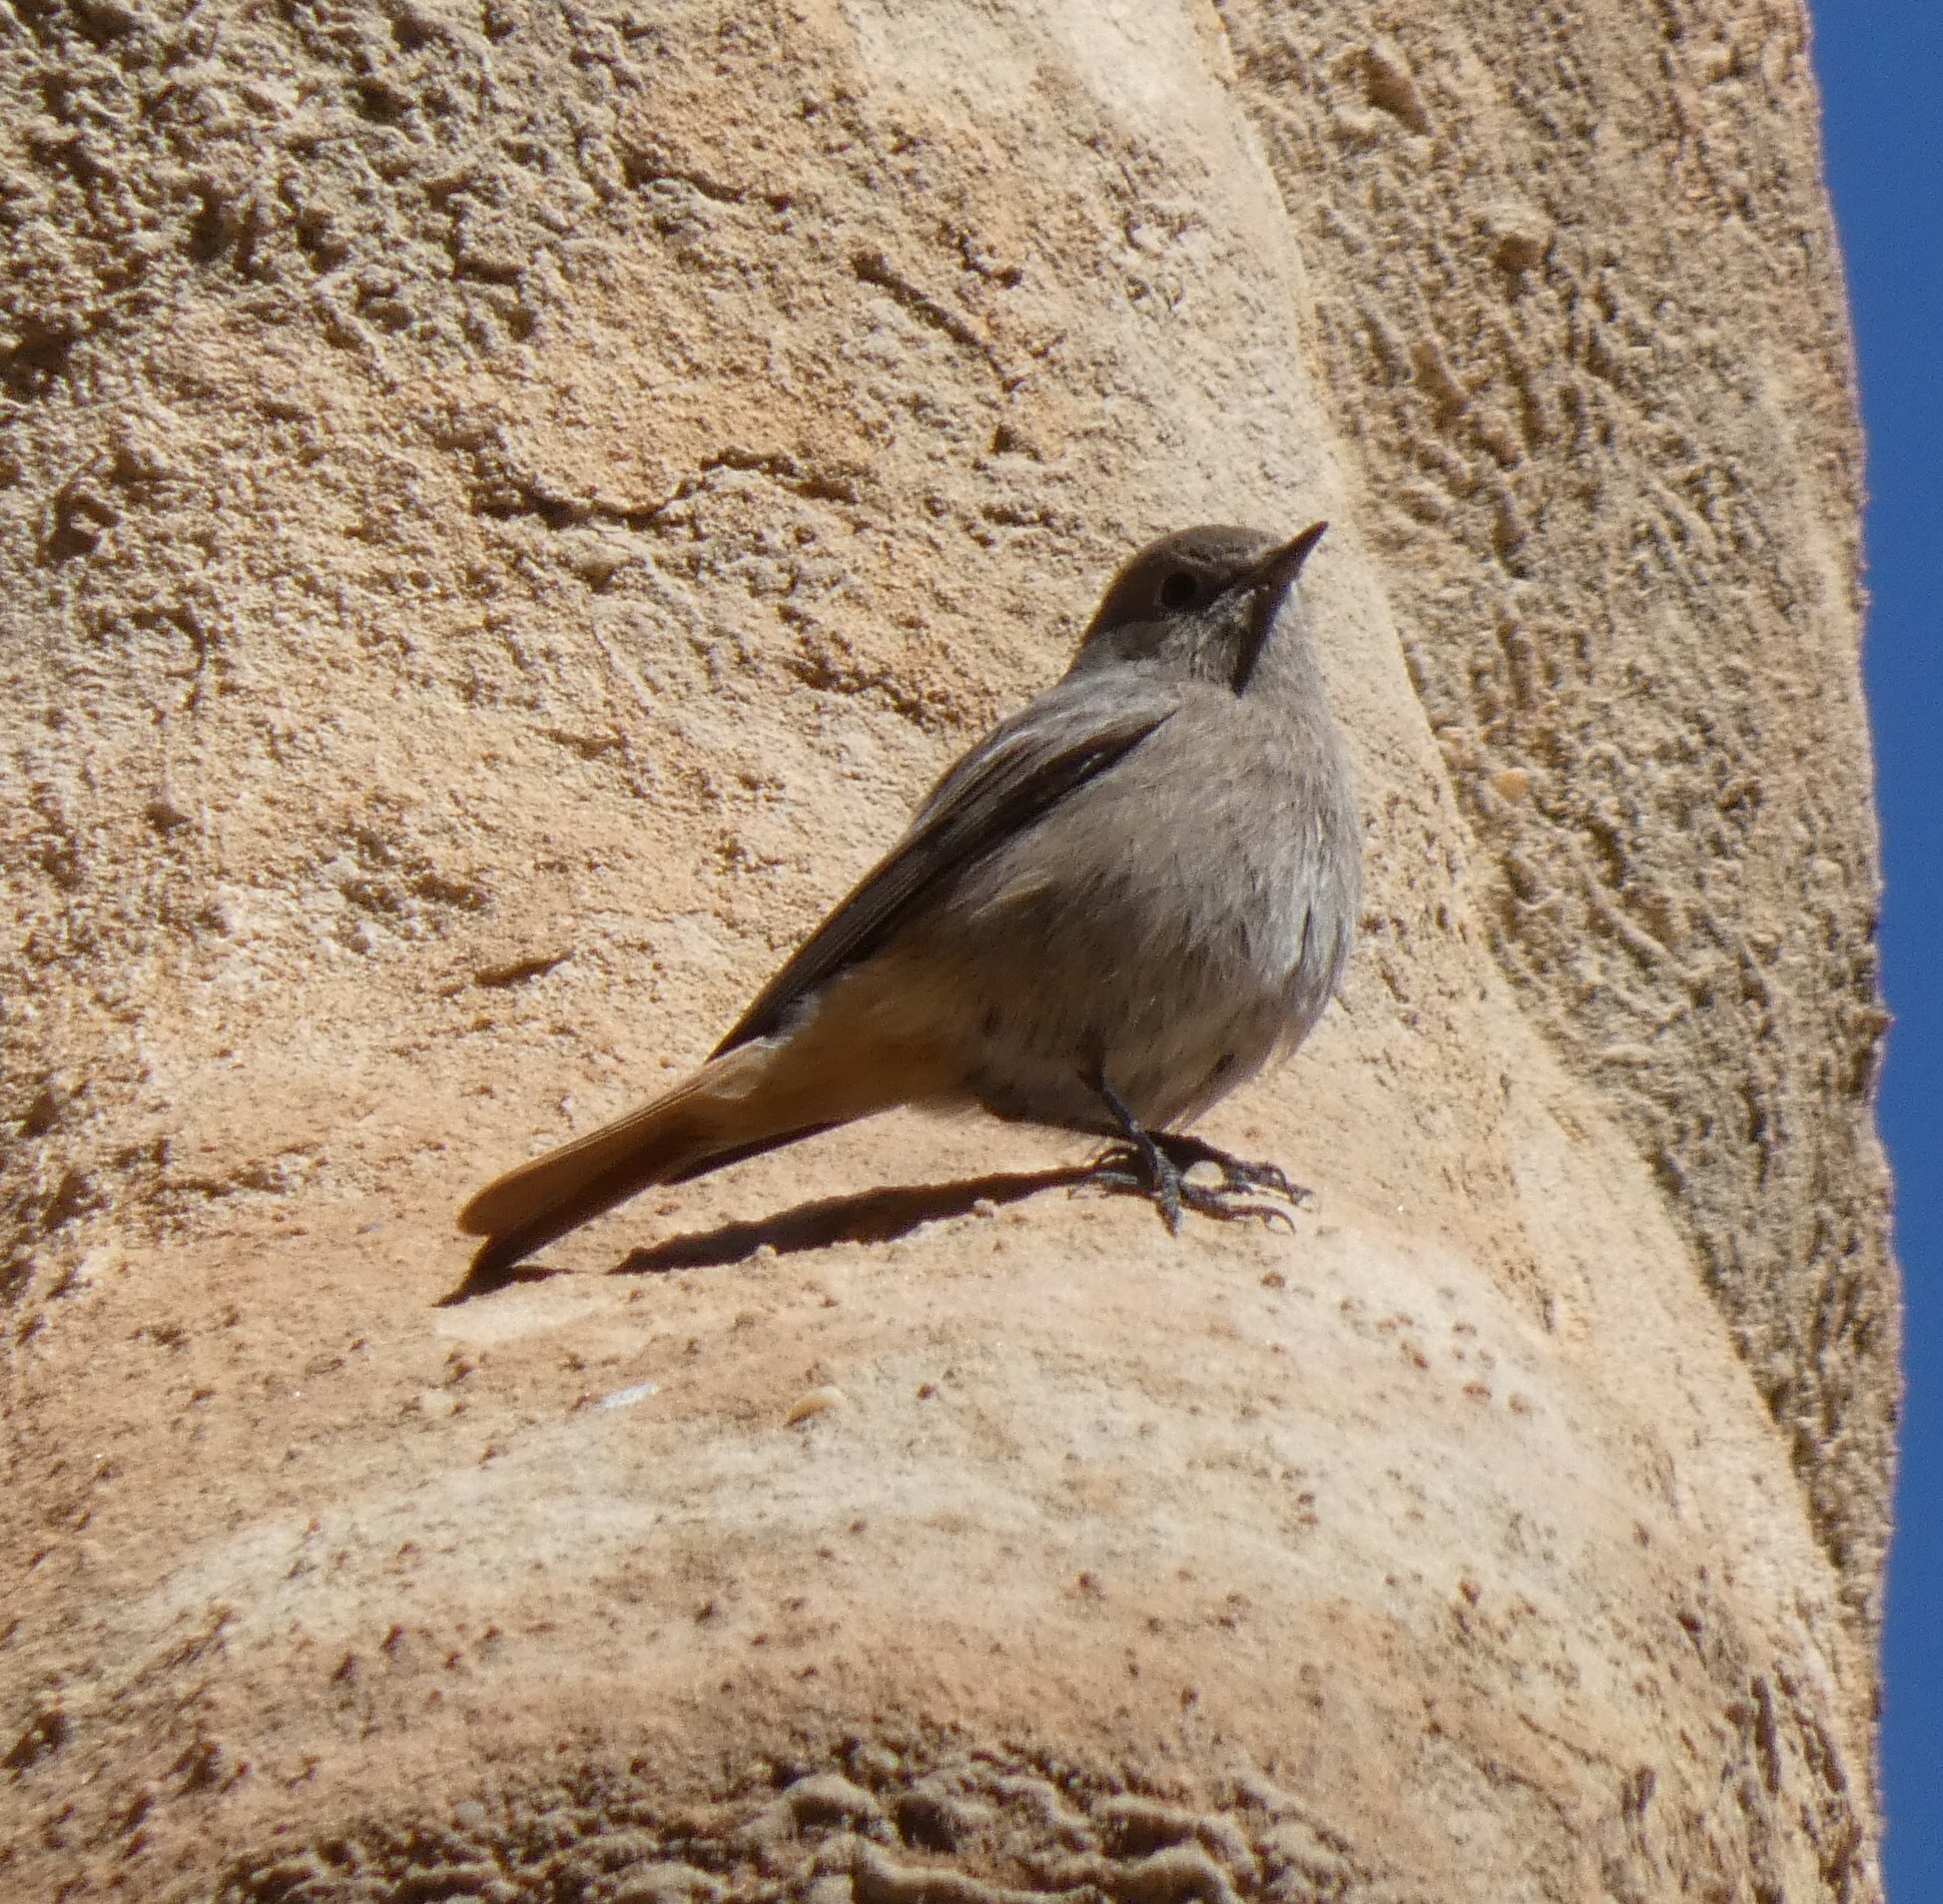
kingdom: Animalia
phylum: Chordata
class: Aves
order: Passeriformes
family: Muscicapidae
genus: Phoenicurus
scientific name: Phoenicurus ochruros
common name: Black redstart
